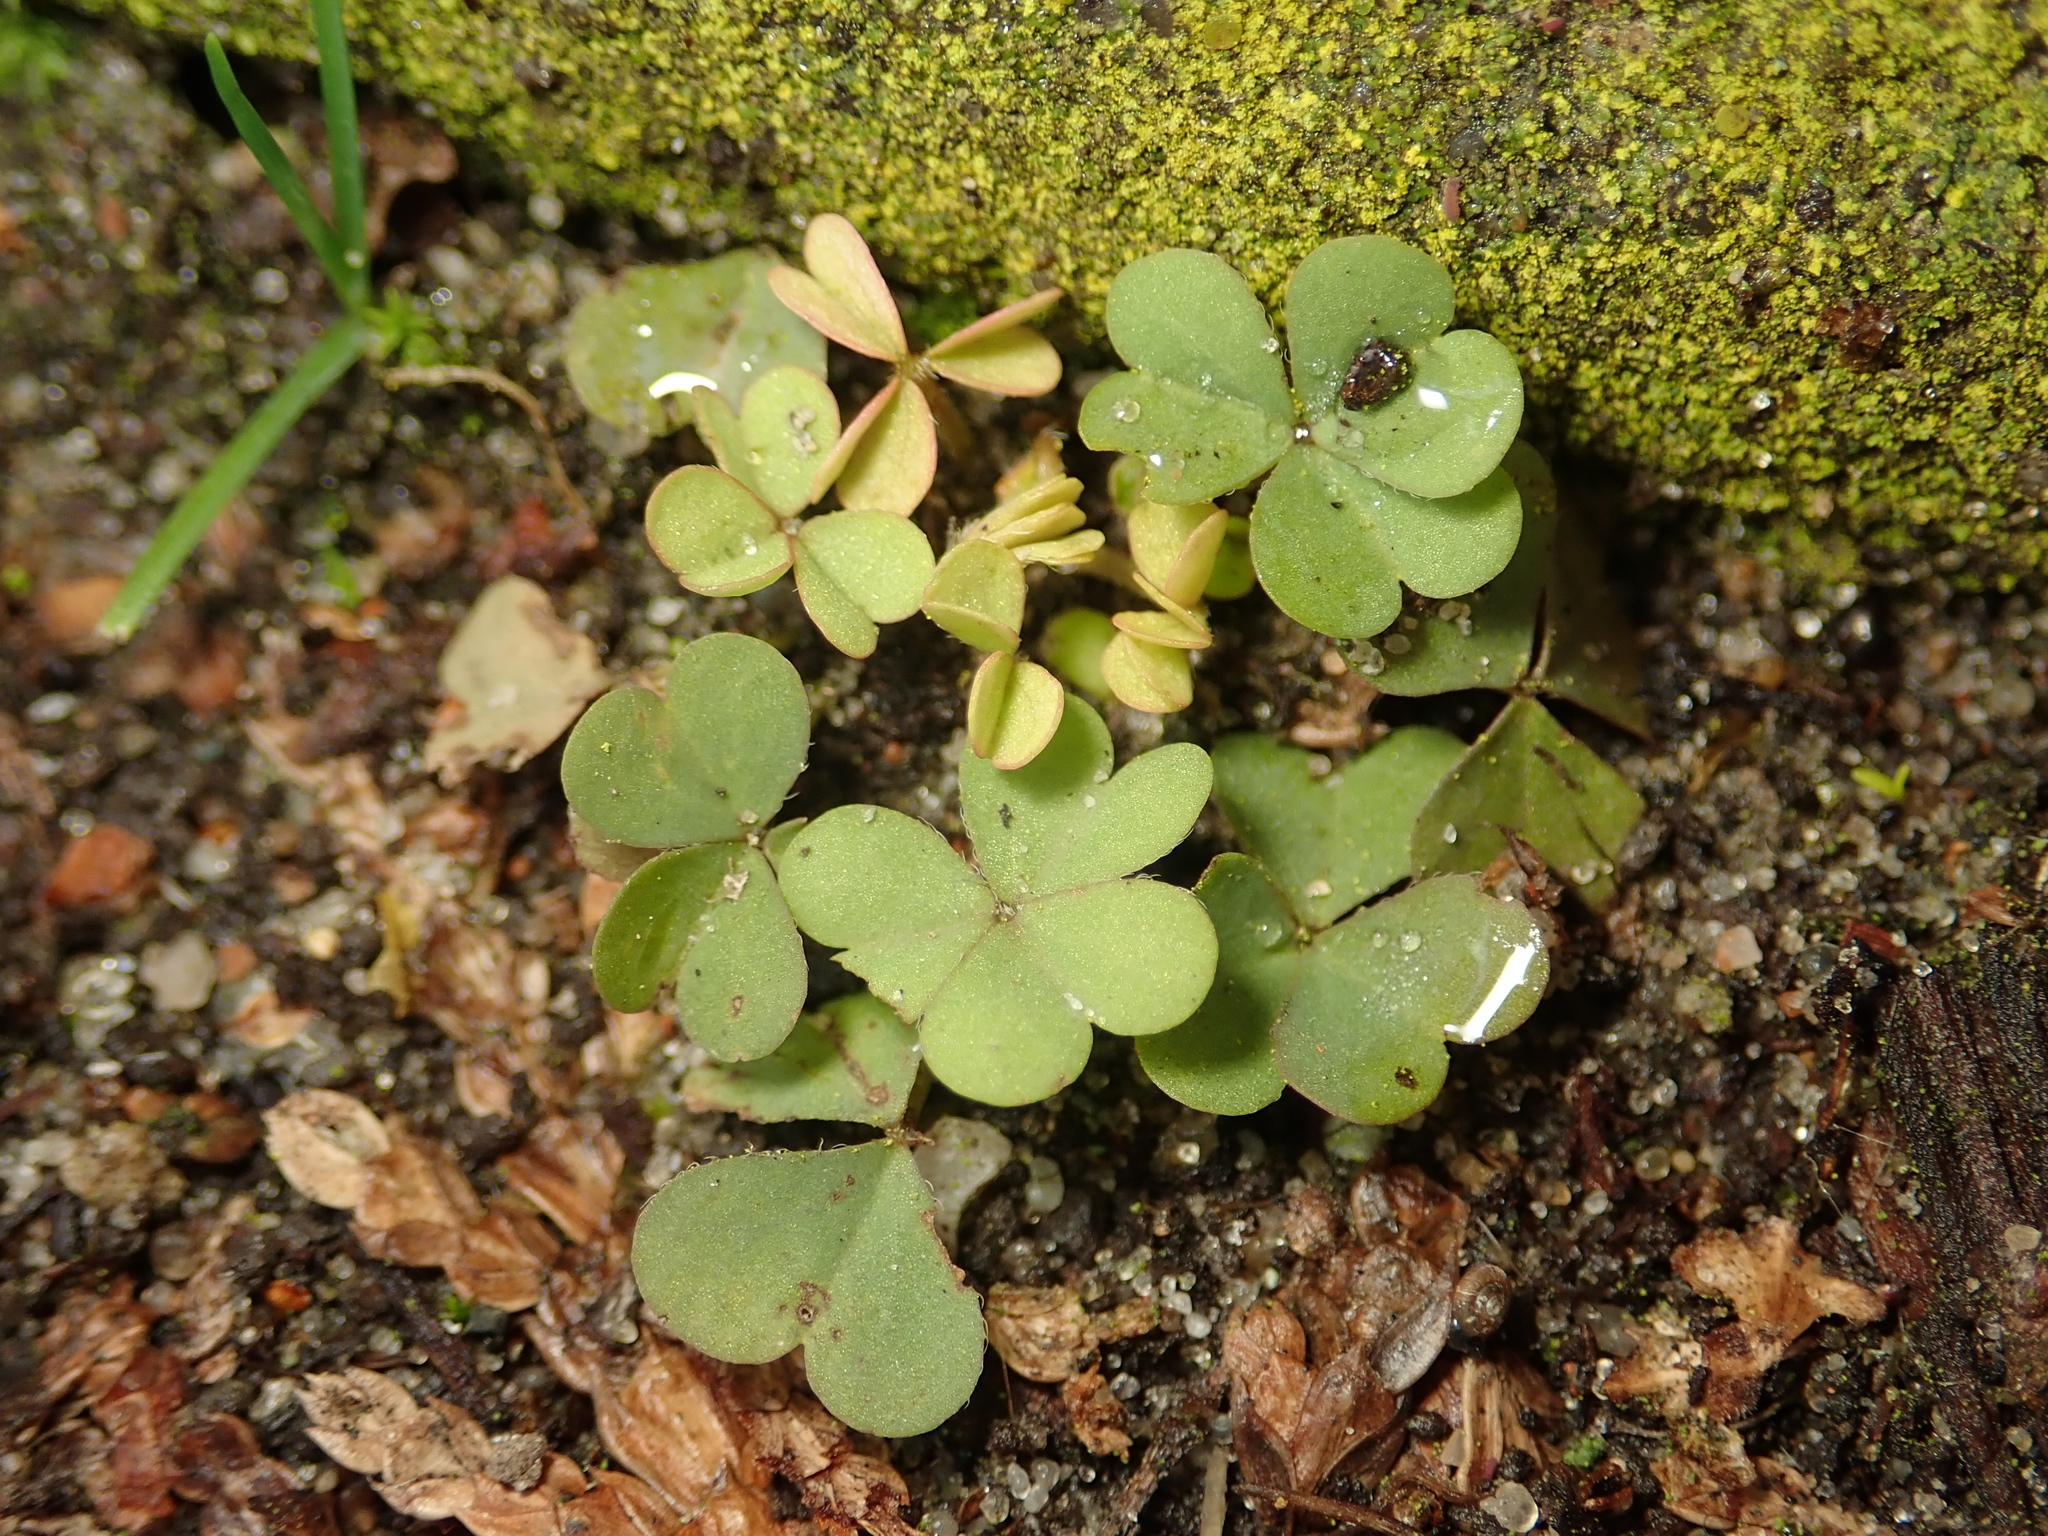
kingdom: Plantae
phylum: Tracheophyta
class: Magnoliopsida
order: Oxalidales
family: Oxalidaceae
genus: Oxalis
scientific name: Oxalis corniculata
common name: Procumbent yellow-sorrel
